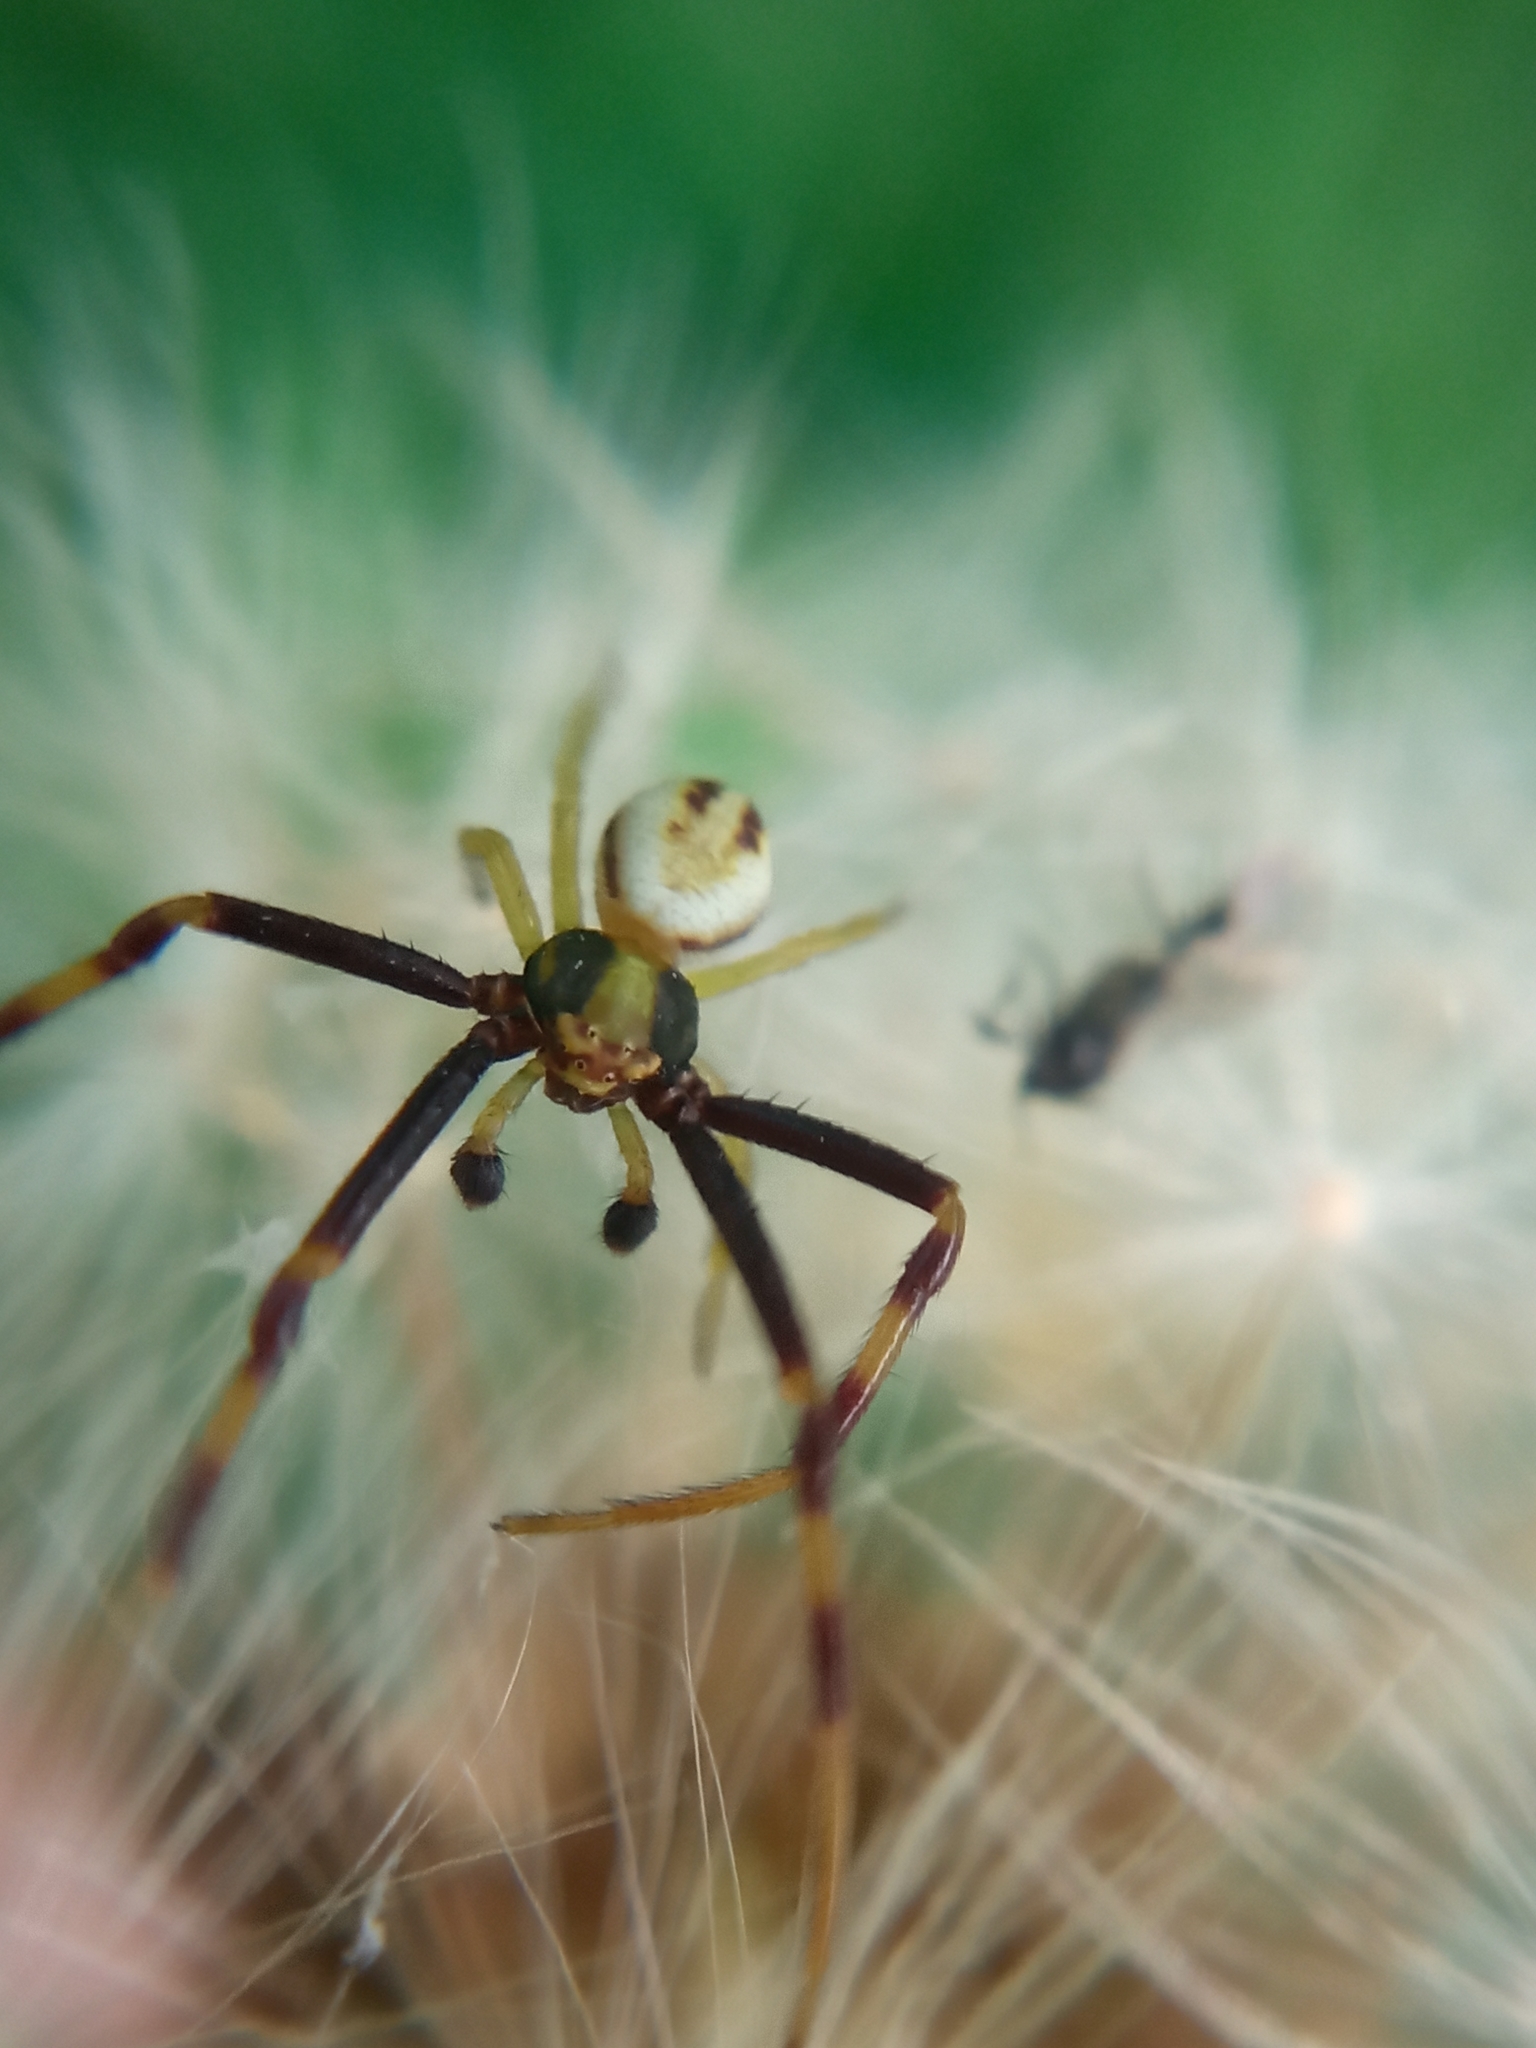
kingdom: Animalia
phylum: Arthropoda
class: Arachnida
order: Araneae
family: Thomisidae
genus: Misumena
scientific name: Misumena vatia
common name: Goldenrod crab spider
